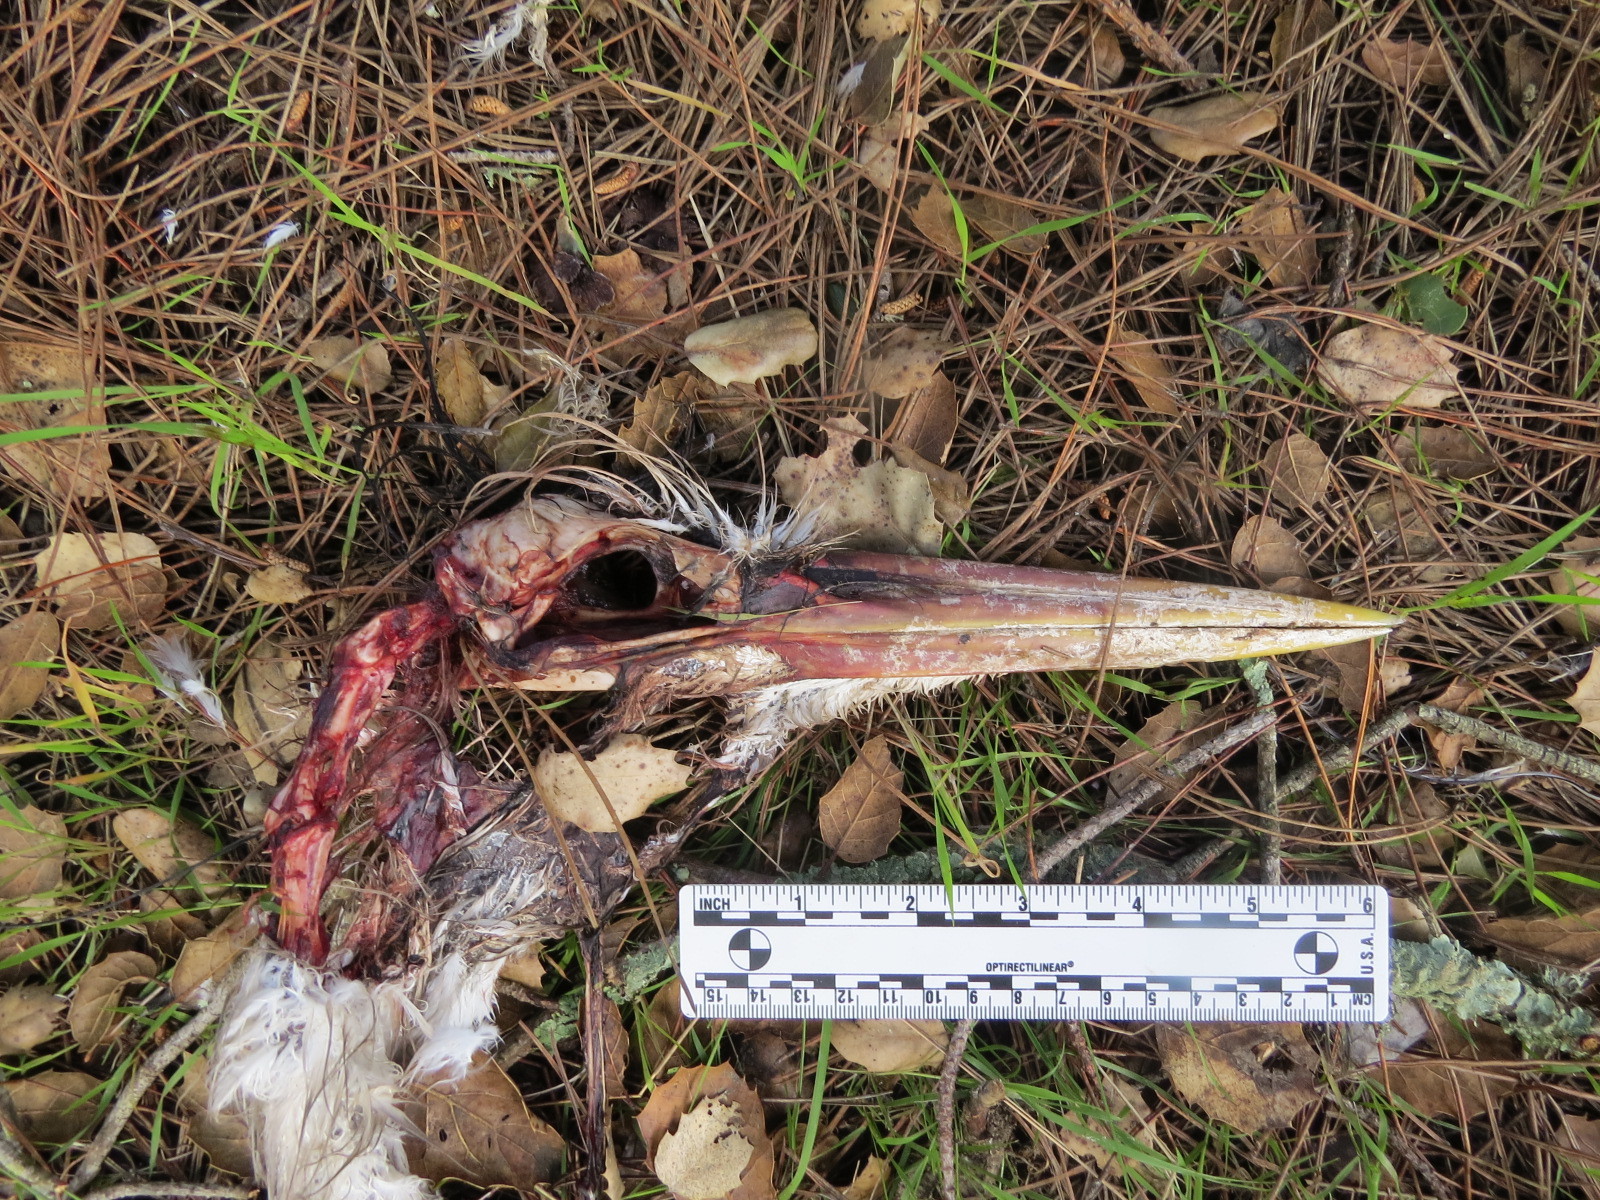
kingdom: Animalia
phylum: Chordata
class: Aves
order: Pelecaniformes
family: Ardeidae
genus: Ardea
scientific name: Ardea herodias
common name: Great blue heron
